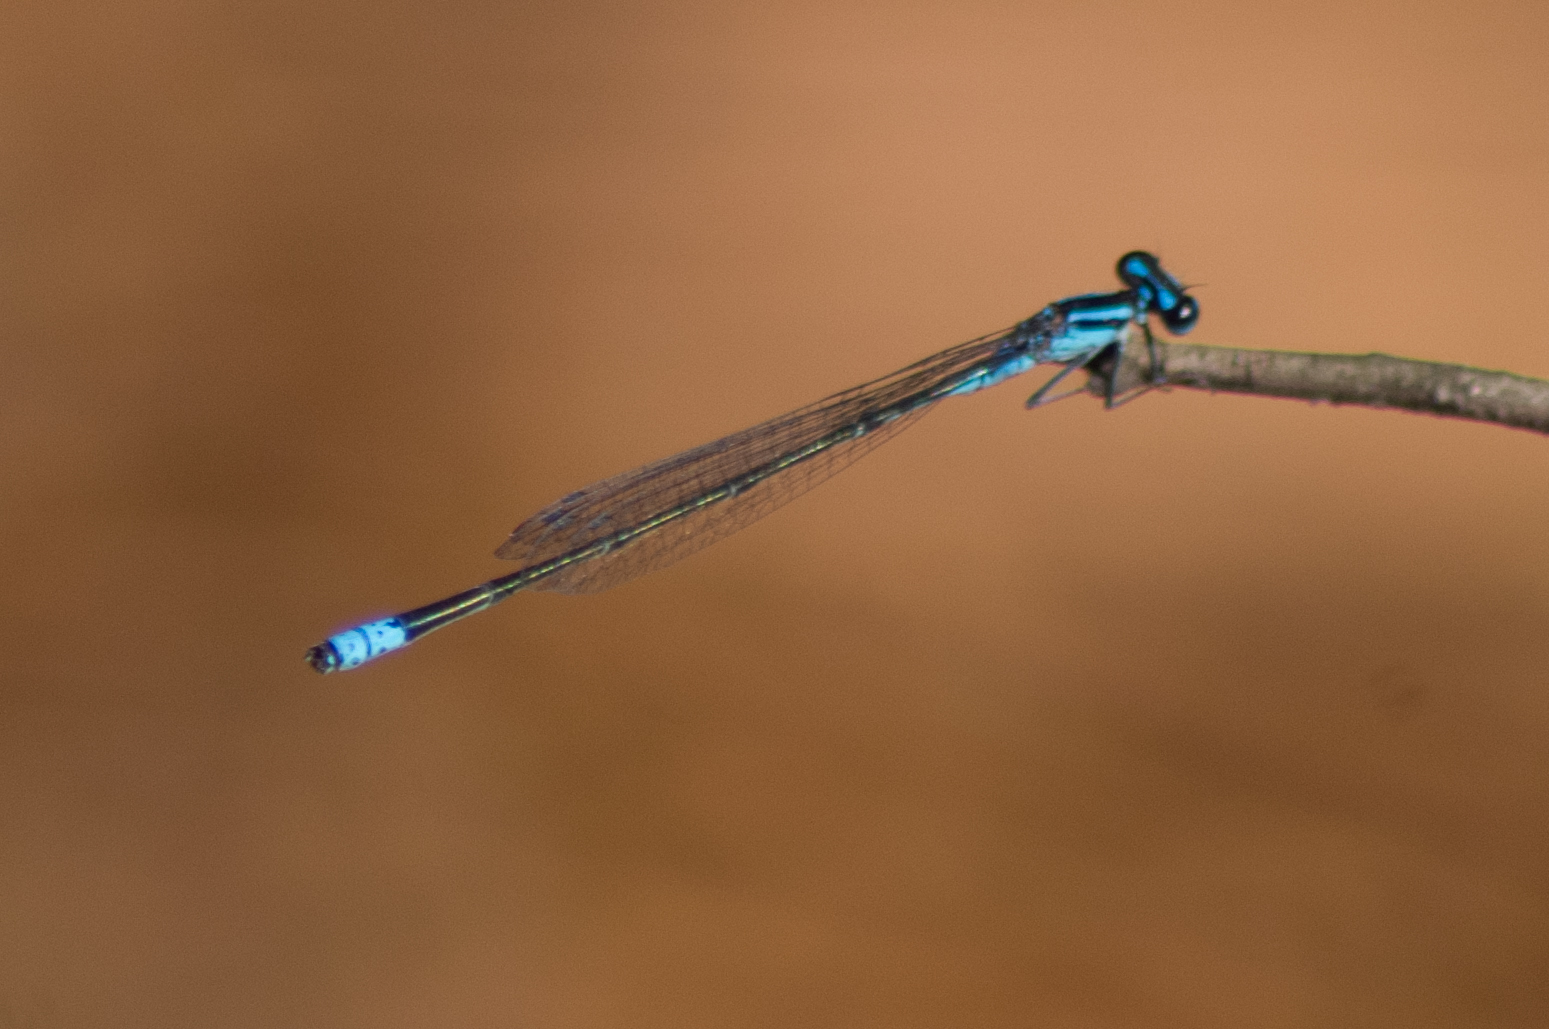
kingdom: Animalia
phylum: Arthropoda
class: Insecta
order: Odonata
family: Coenagrionidae
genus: Enallagma
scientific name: Enallagma divagans
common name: Turquoise bluet
